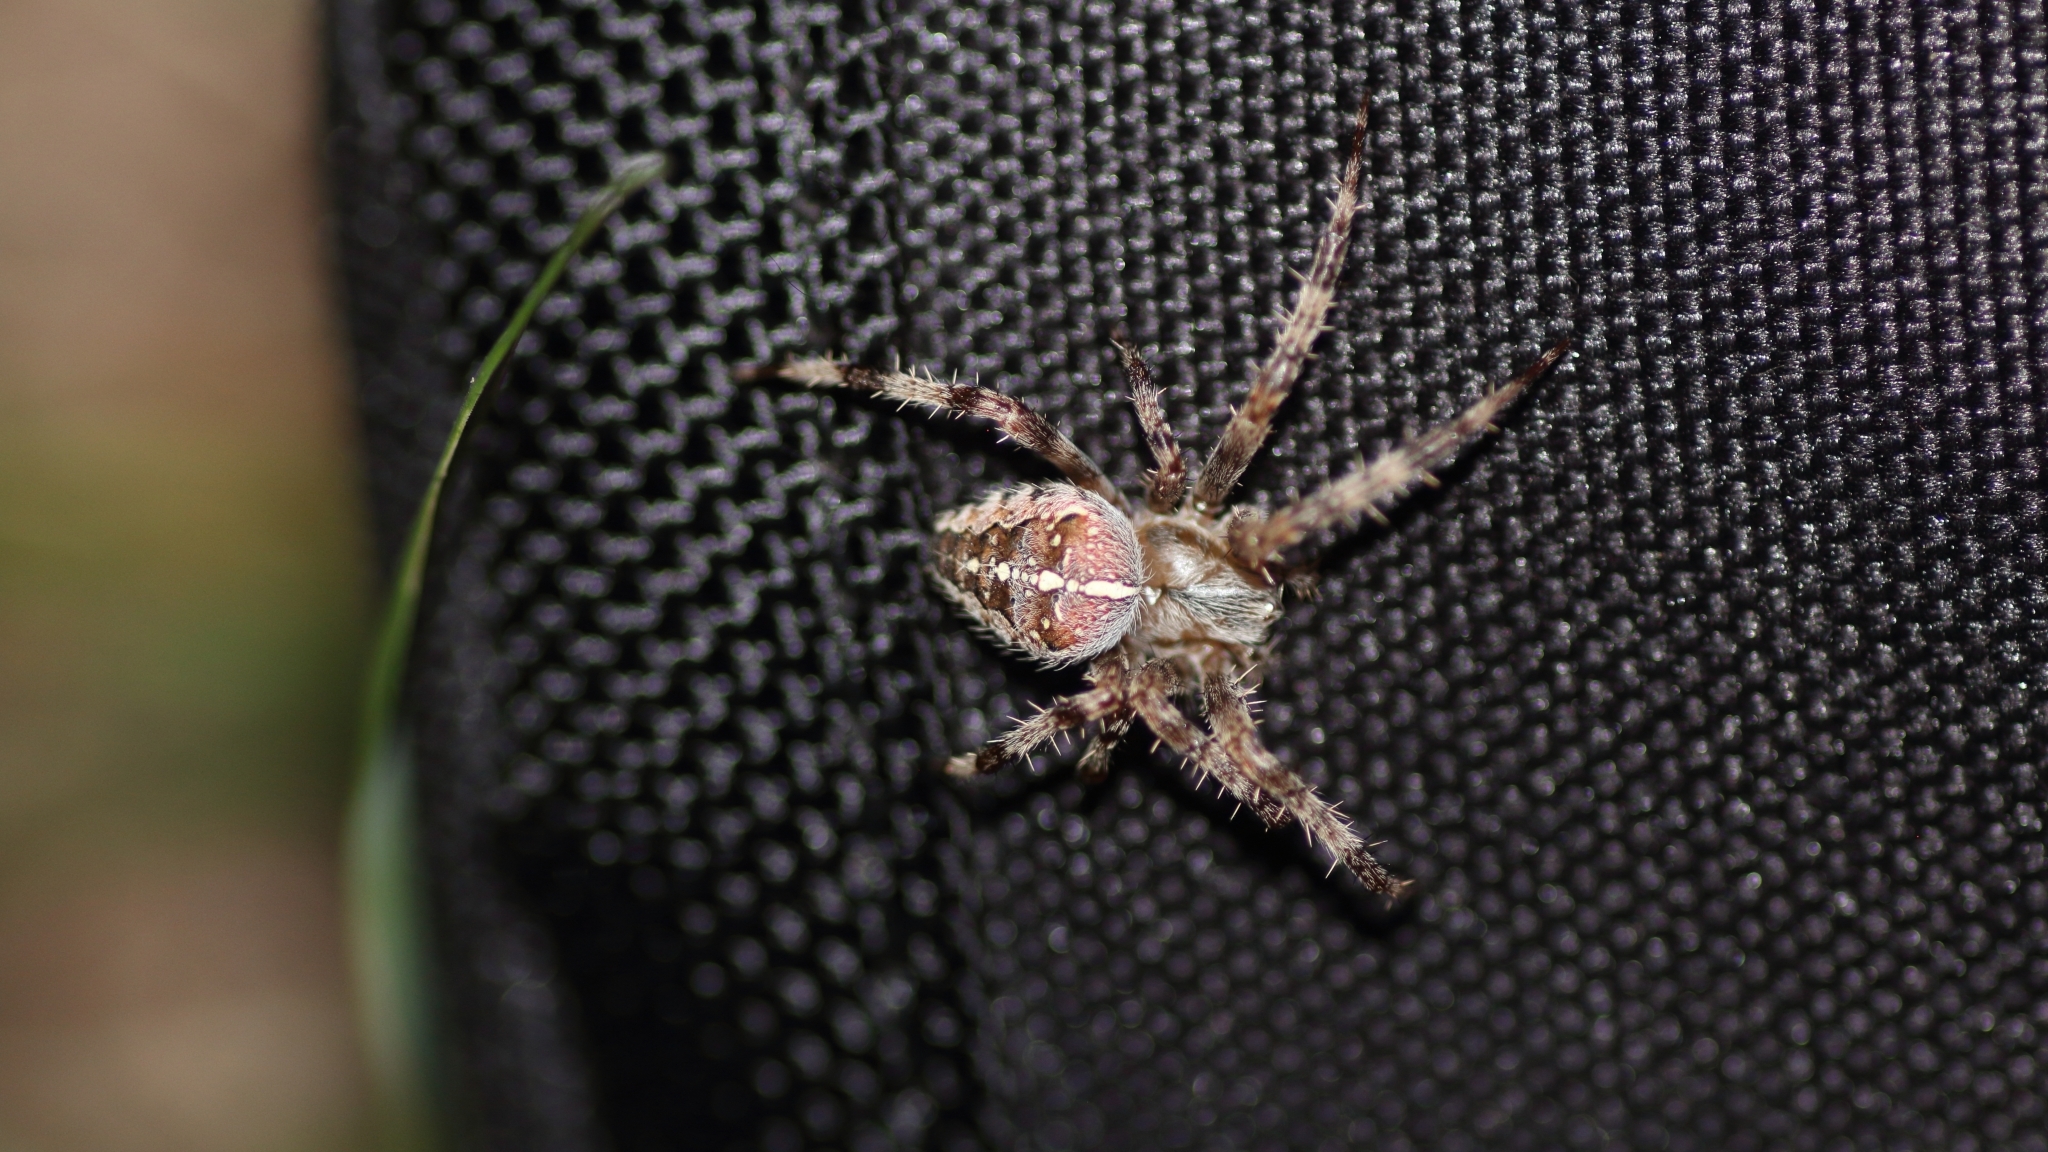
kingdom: Animalia
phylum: Arthropoda
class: Arachnida
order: Araneae
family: Araneidae
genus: Araneus
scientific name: Araneus diadematus
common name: Cross orbweaver
